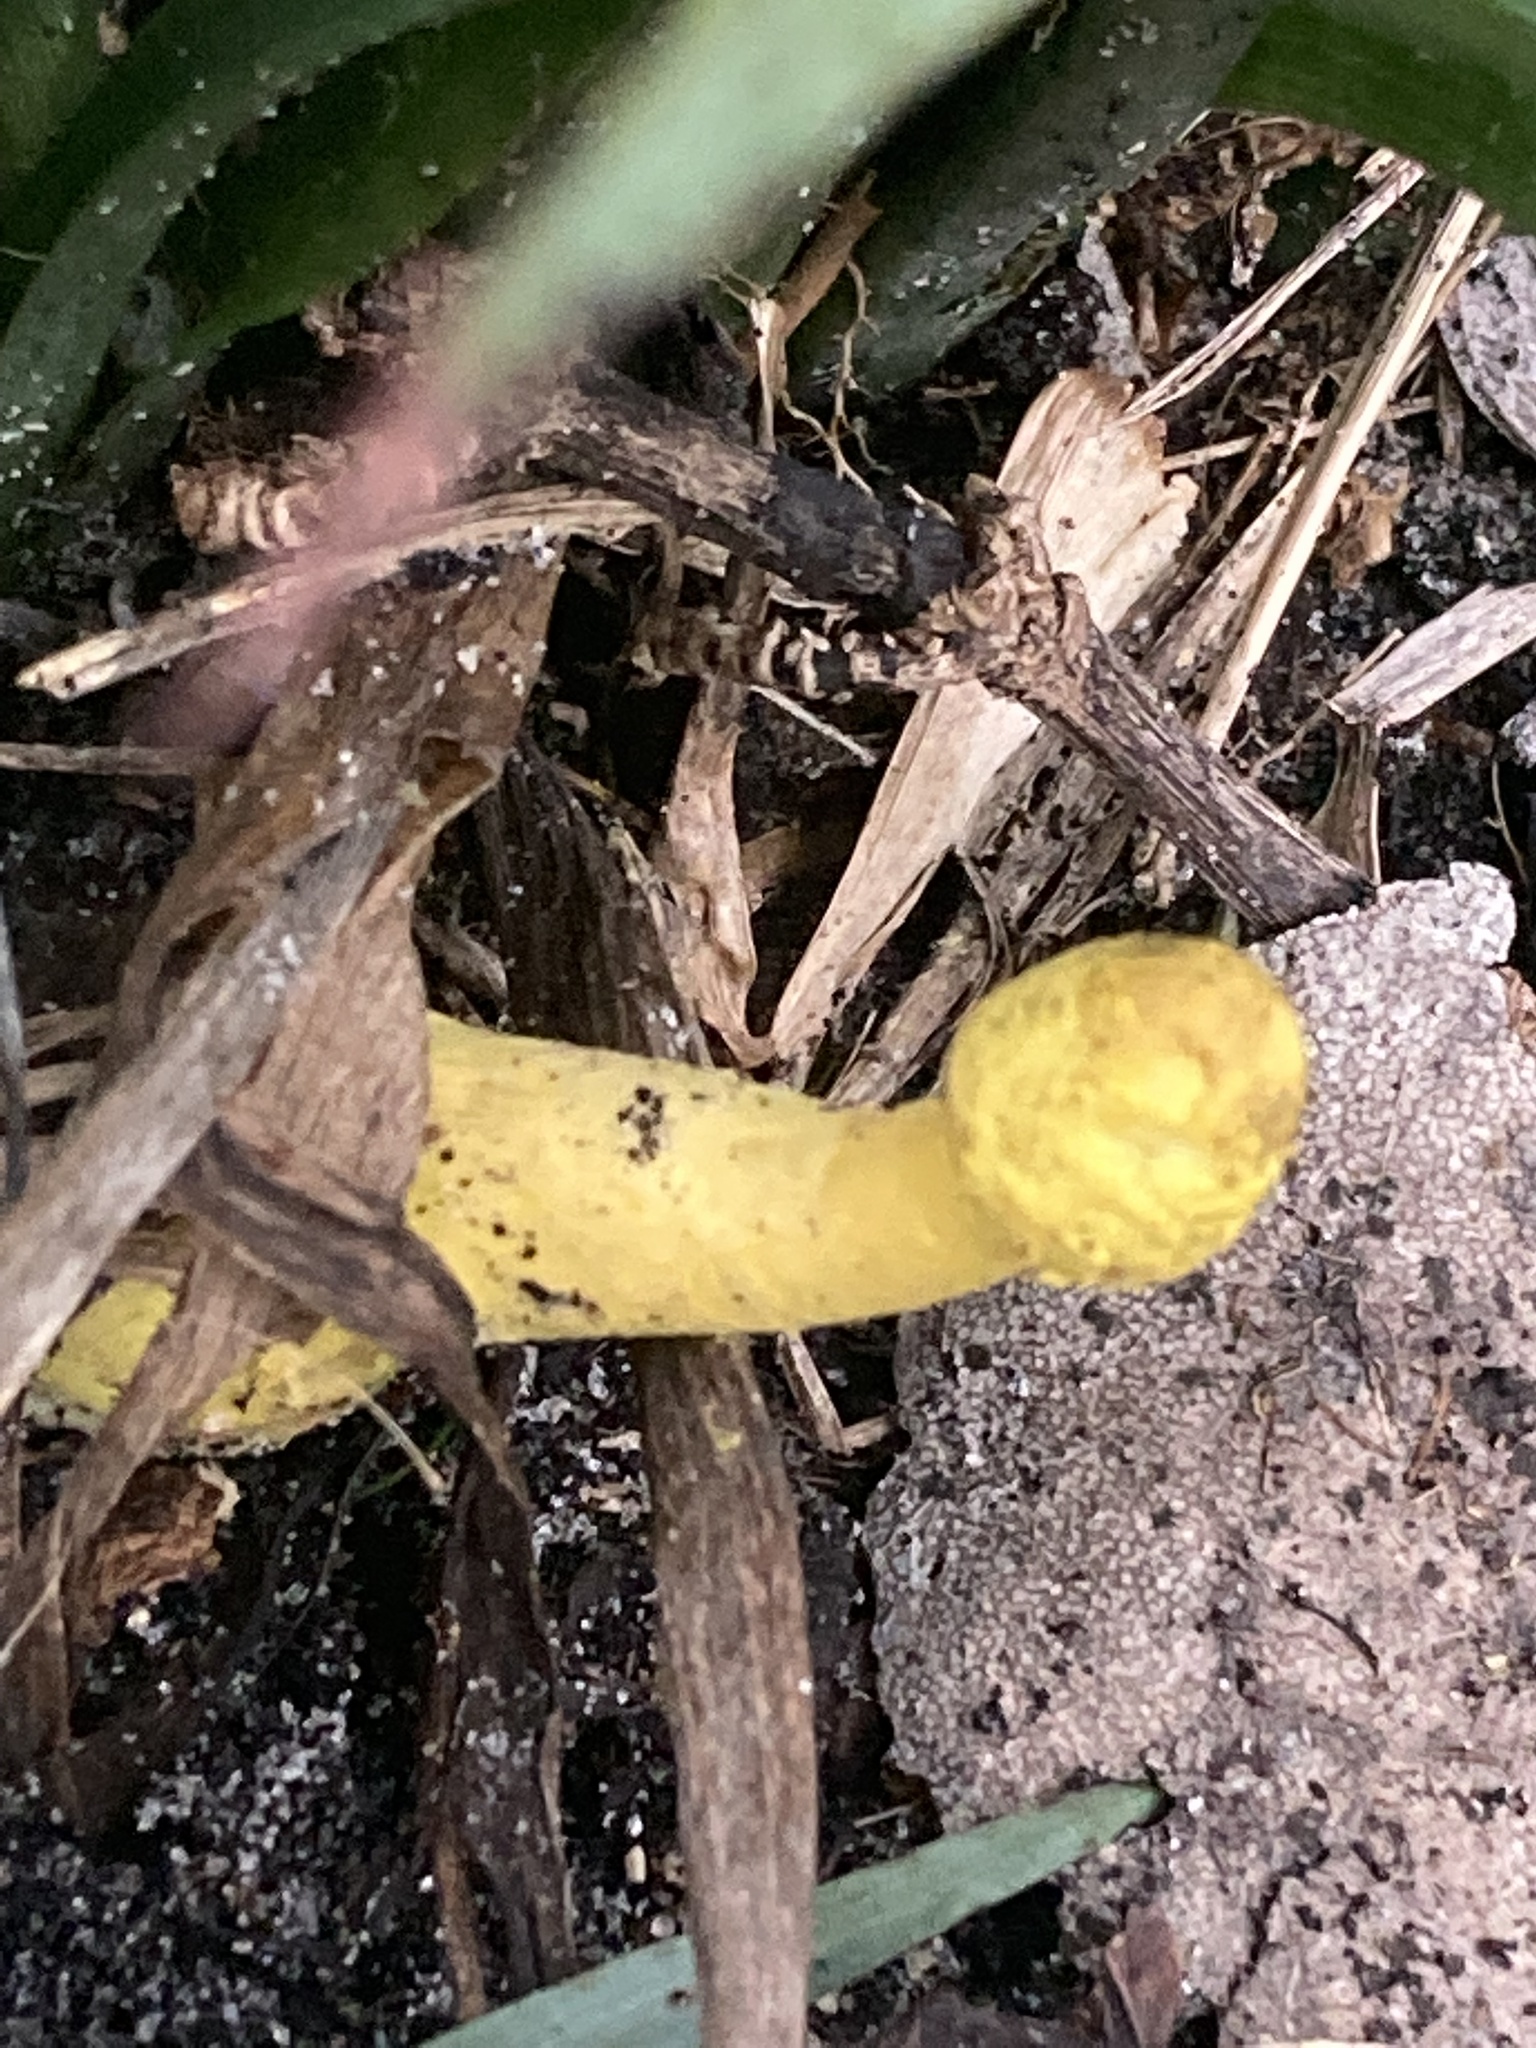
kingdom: Fungi
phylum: Basidiomycota
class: Agaricomycetes
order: Agaricales
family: Agaricaceae
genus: Leucocoprinus
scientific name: Leucocoprinus birnbaumii
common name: Plantpot dapperling
